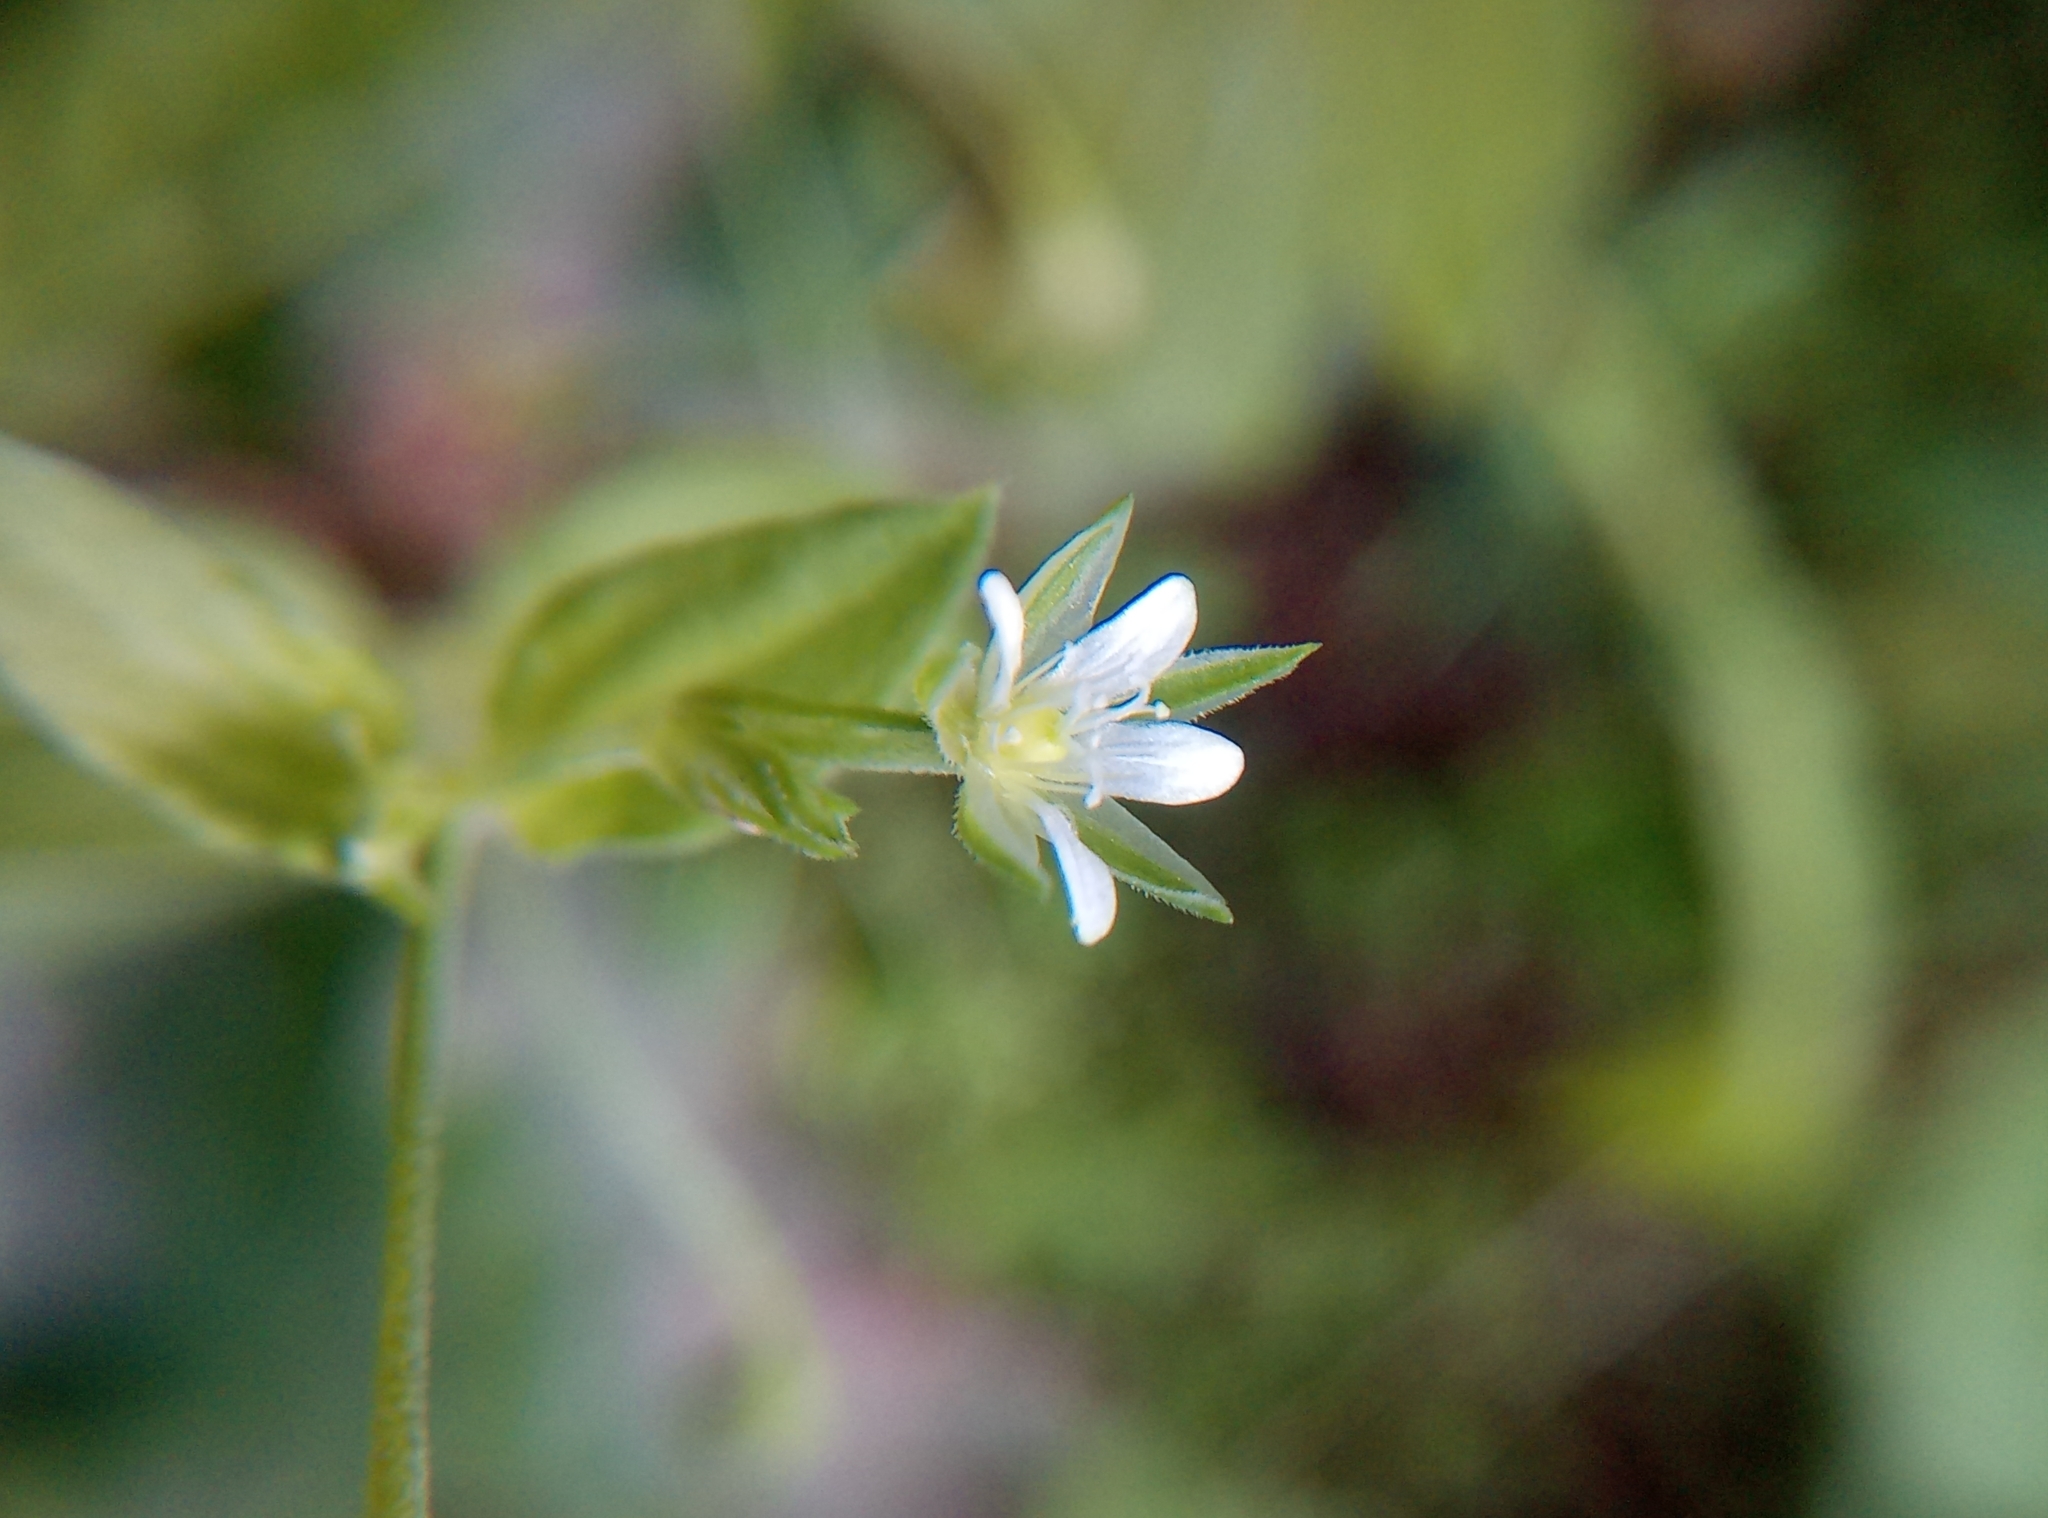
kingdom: Plantae
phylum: Tracheophyta
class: Magnoliopsida
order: Caryophyllales
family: Caryophyllaceae
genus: Moehringia
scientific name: Moehringia trinervia
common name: Three-nerved sandwort
